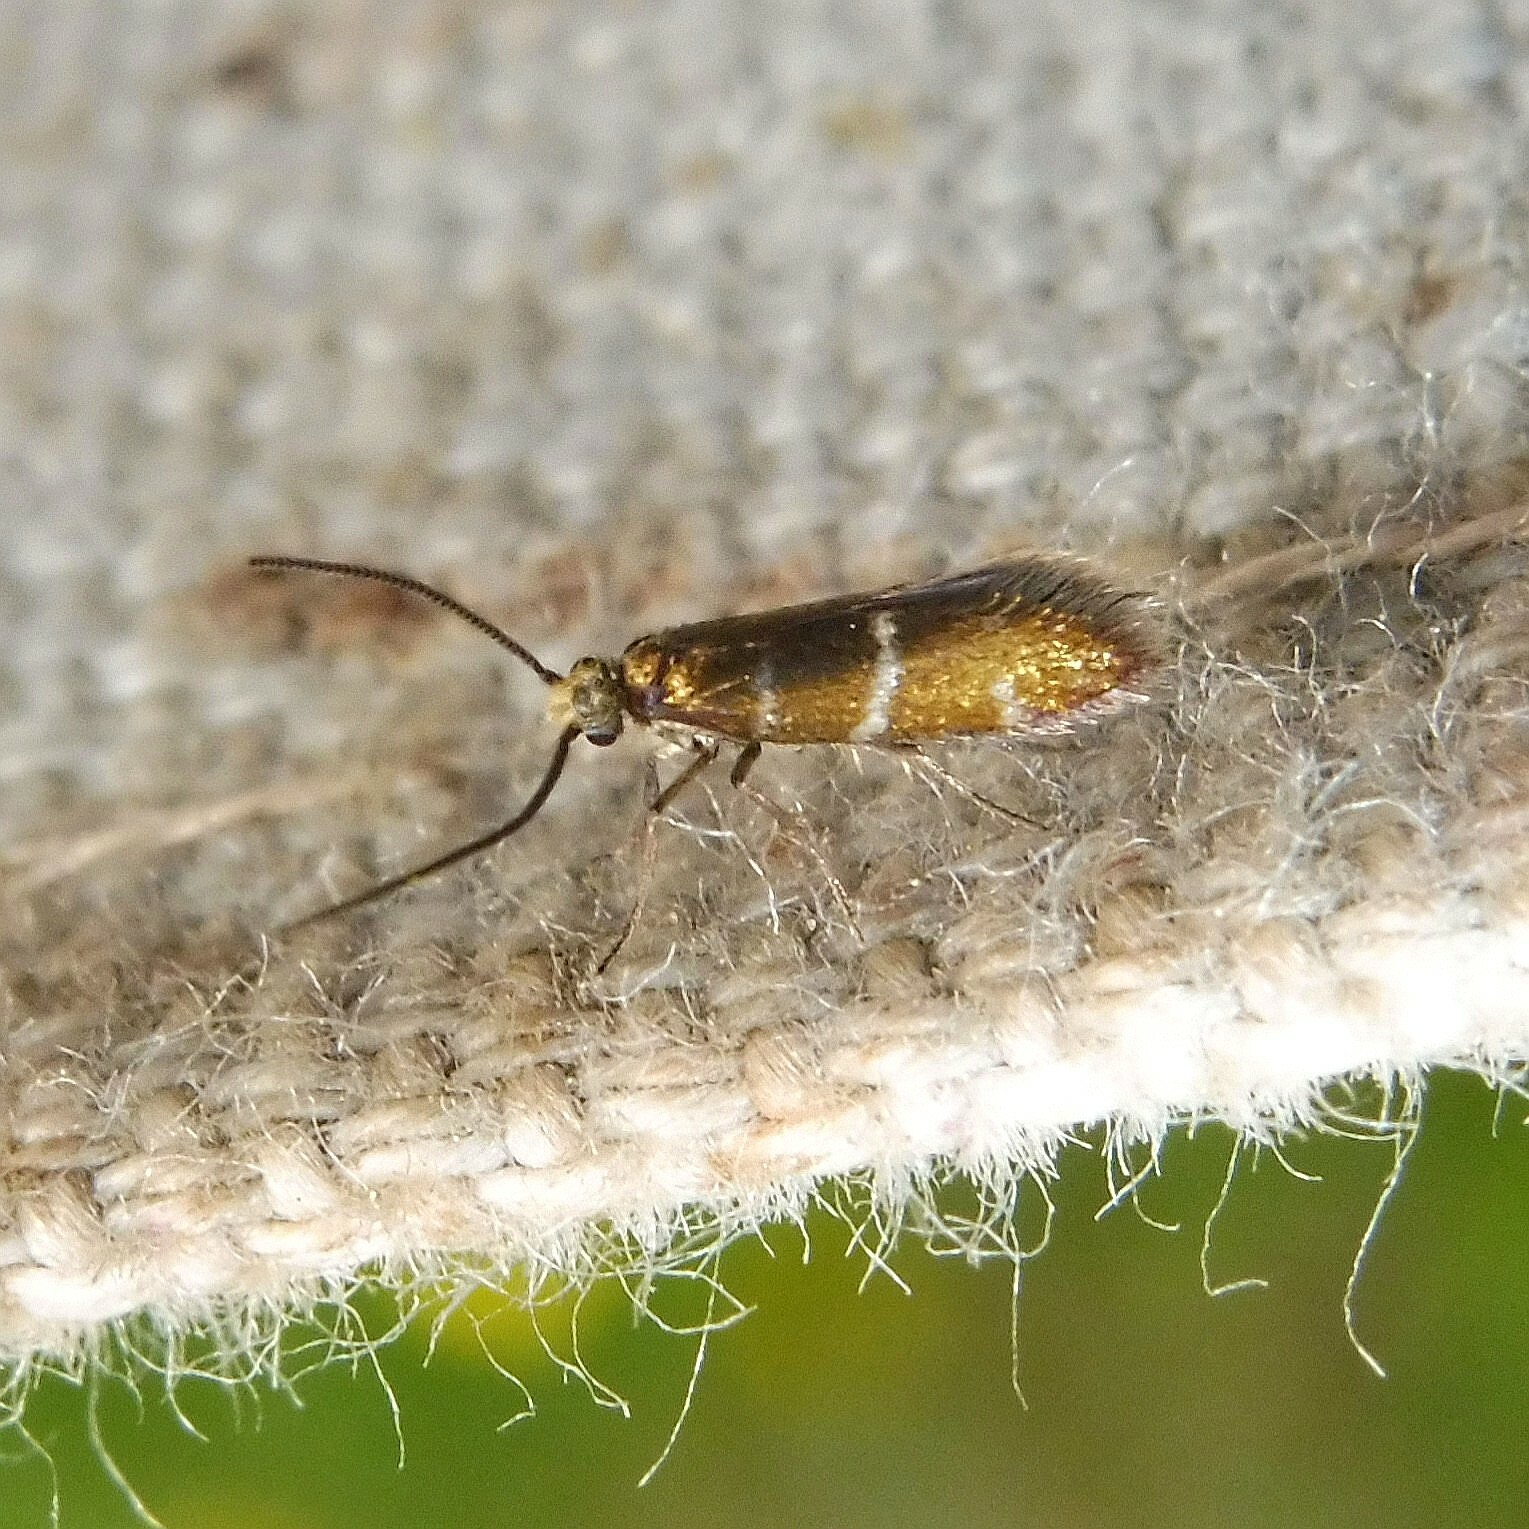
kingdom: Animalia
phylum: Arthropoda
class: Insecta
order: Lepidoptera
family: Micropterigidae
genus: Micropterix
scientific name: Micropterix aruncella
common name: White-barred gold
